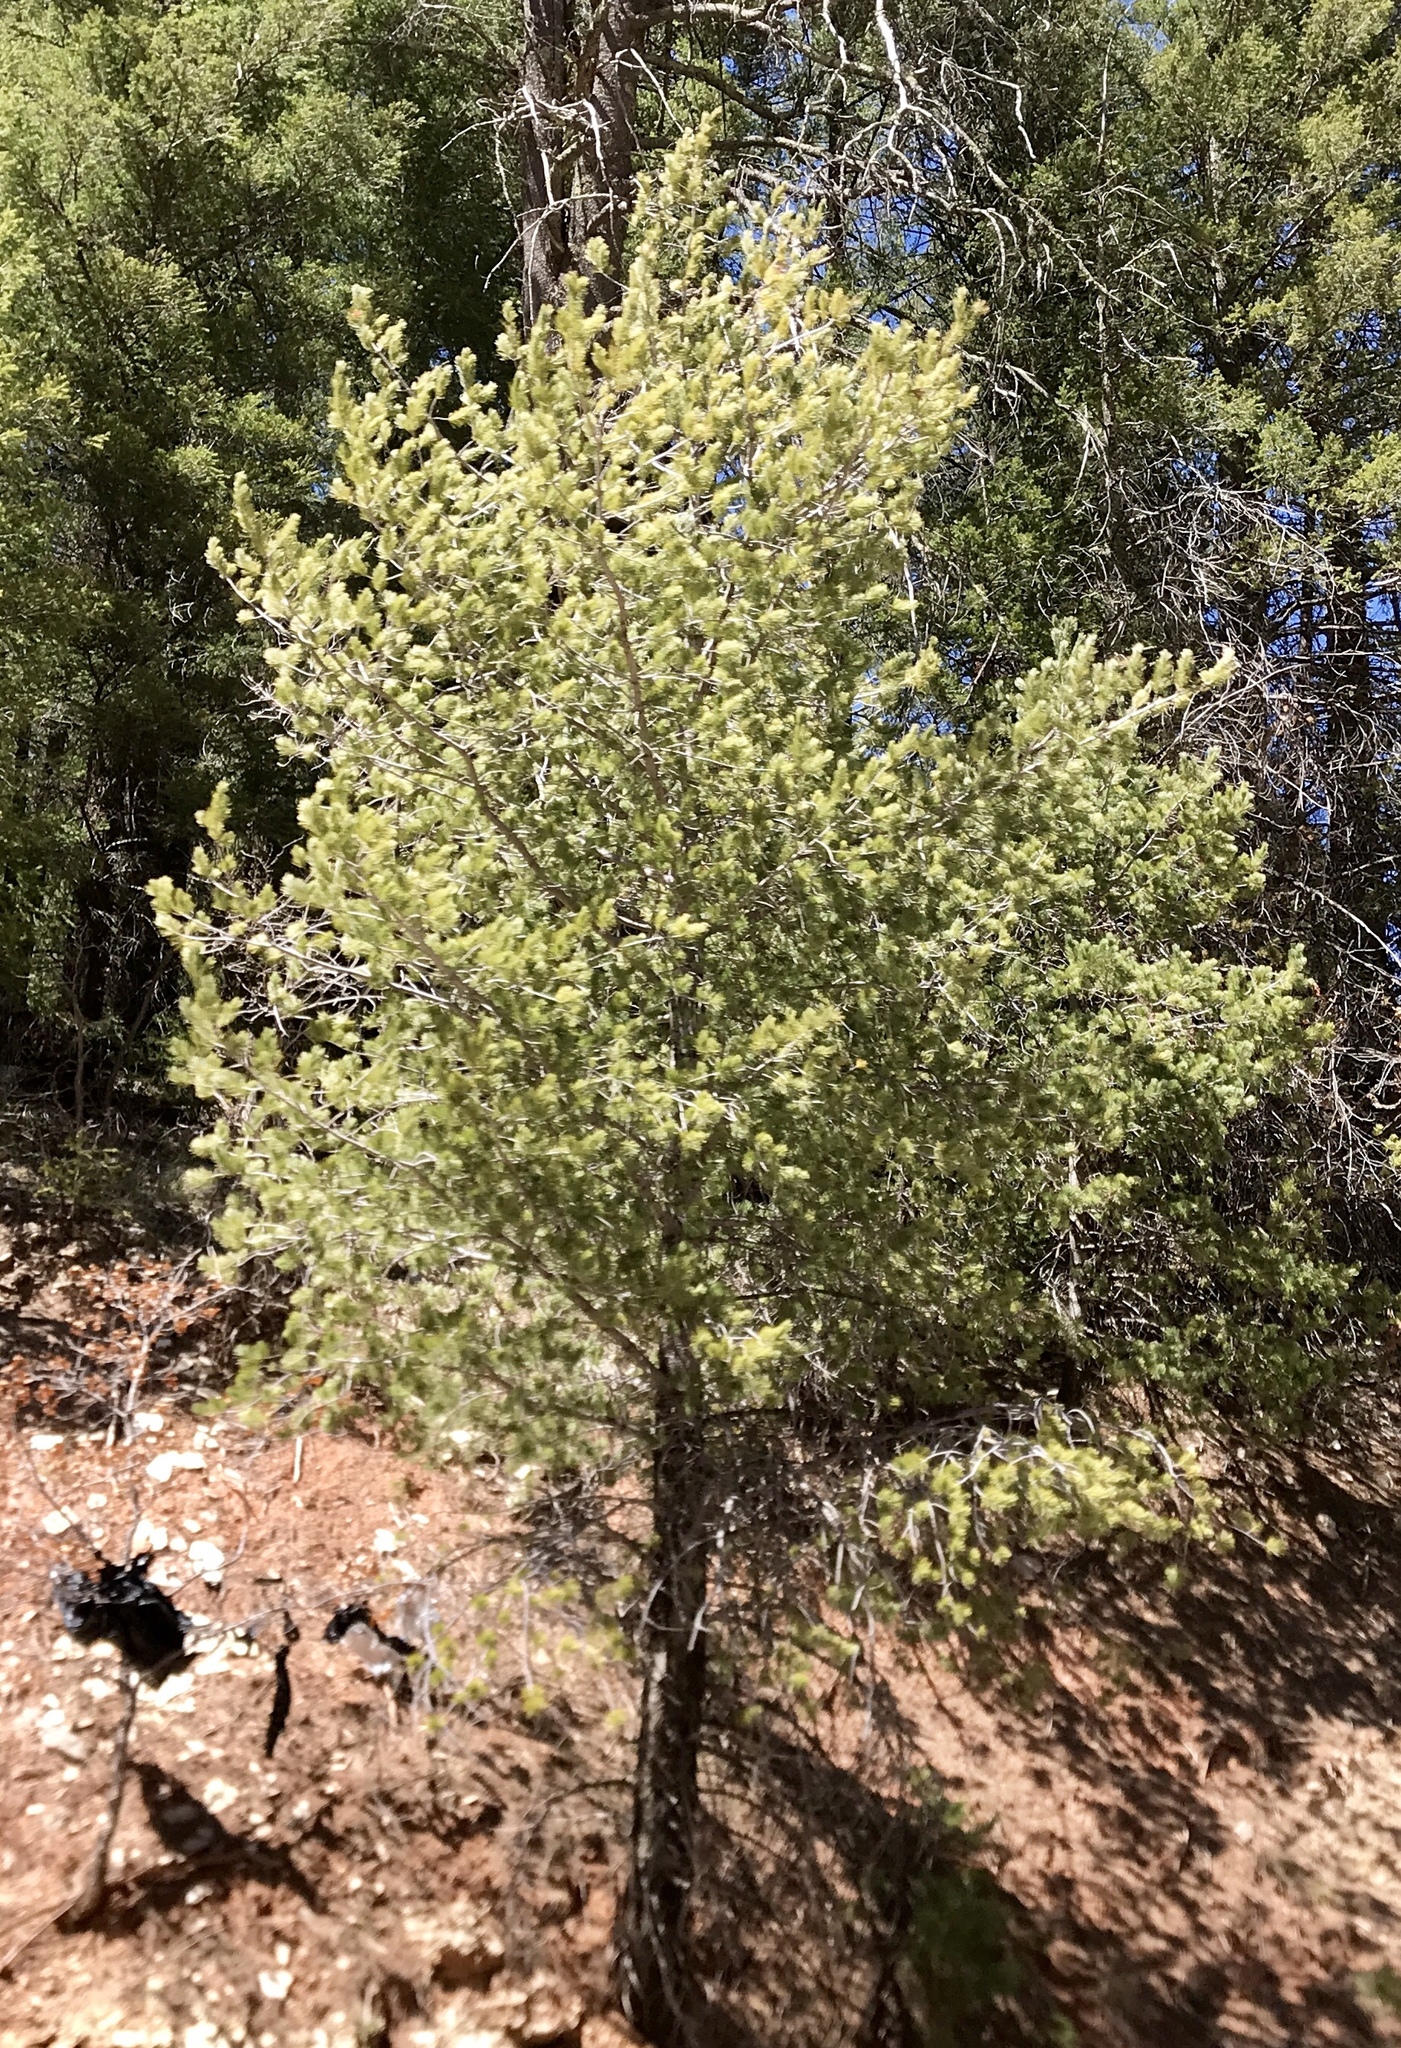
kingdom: Plantae
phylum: Tracheophyta
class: Pinopsida
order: Pinales
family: Pinaceae
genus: Pinus
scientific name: Pinus strobiformis
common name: Southwestern white pine
